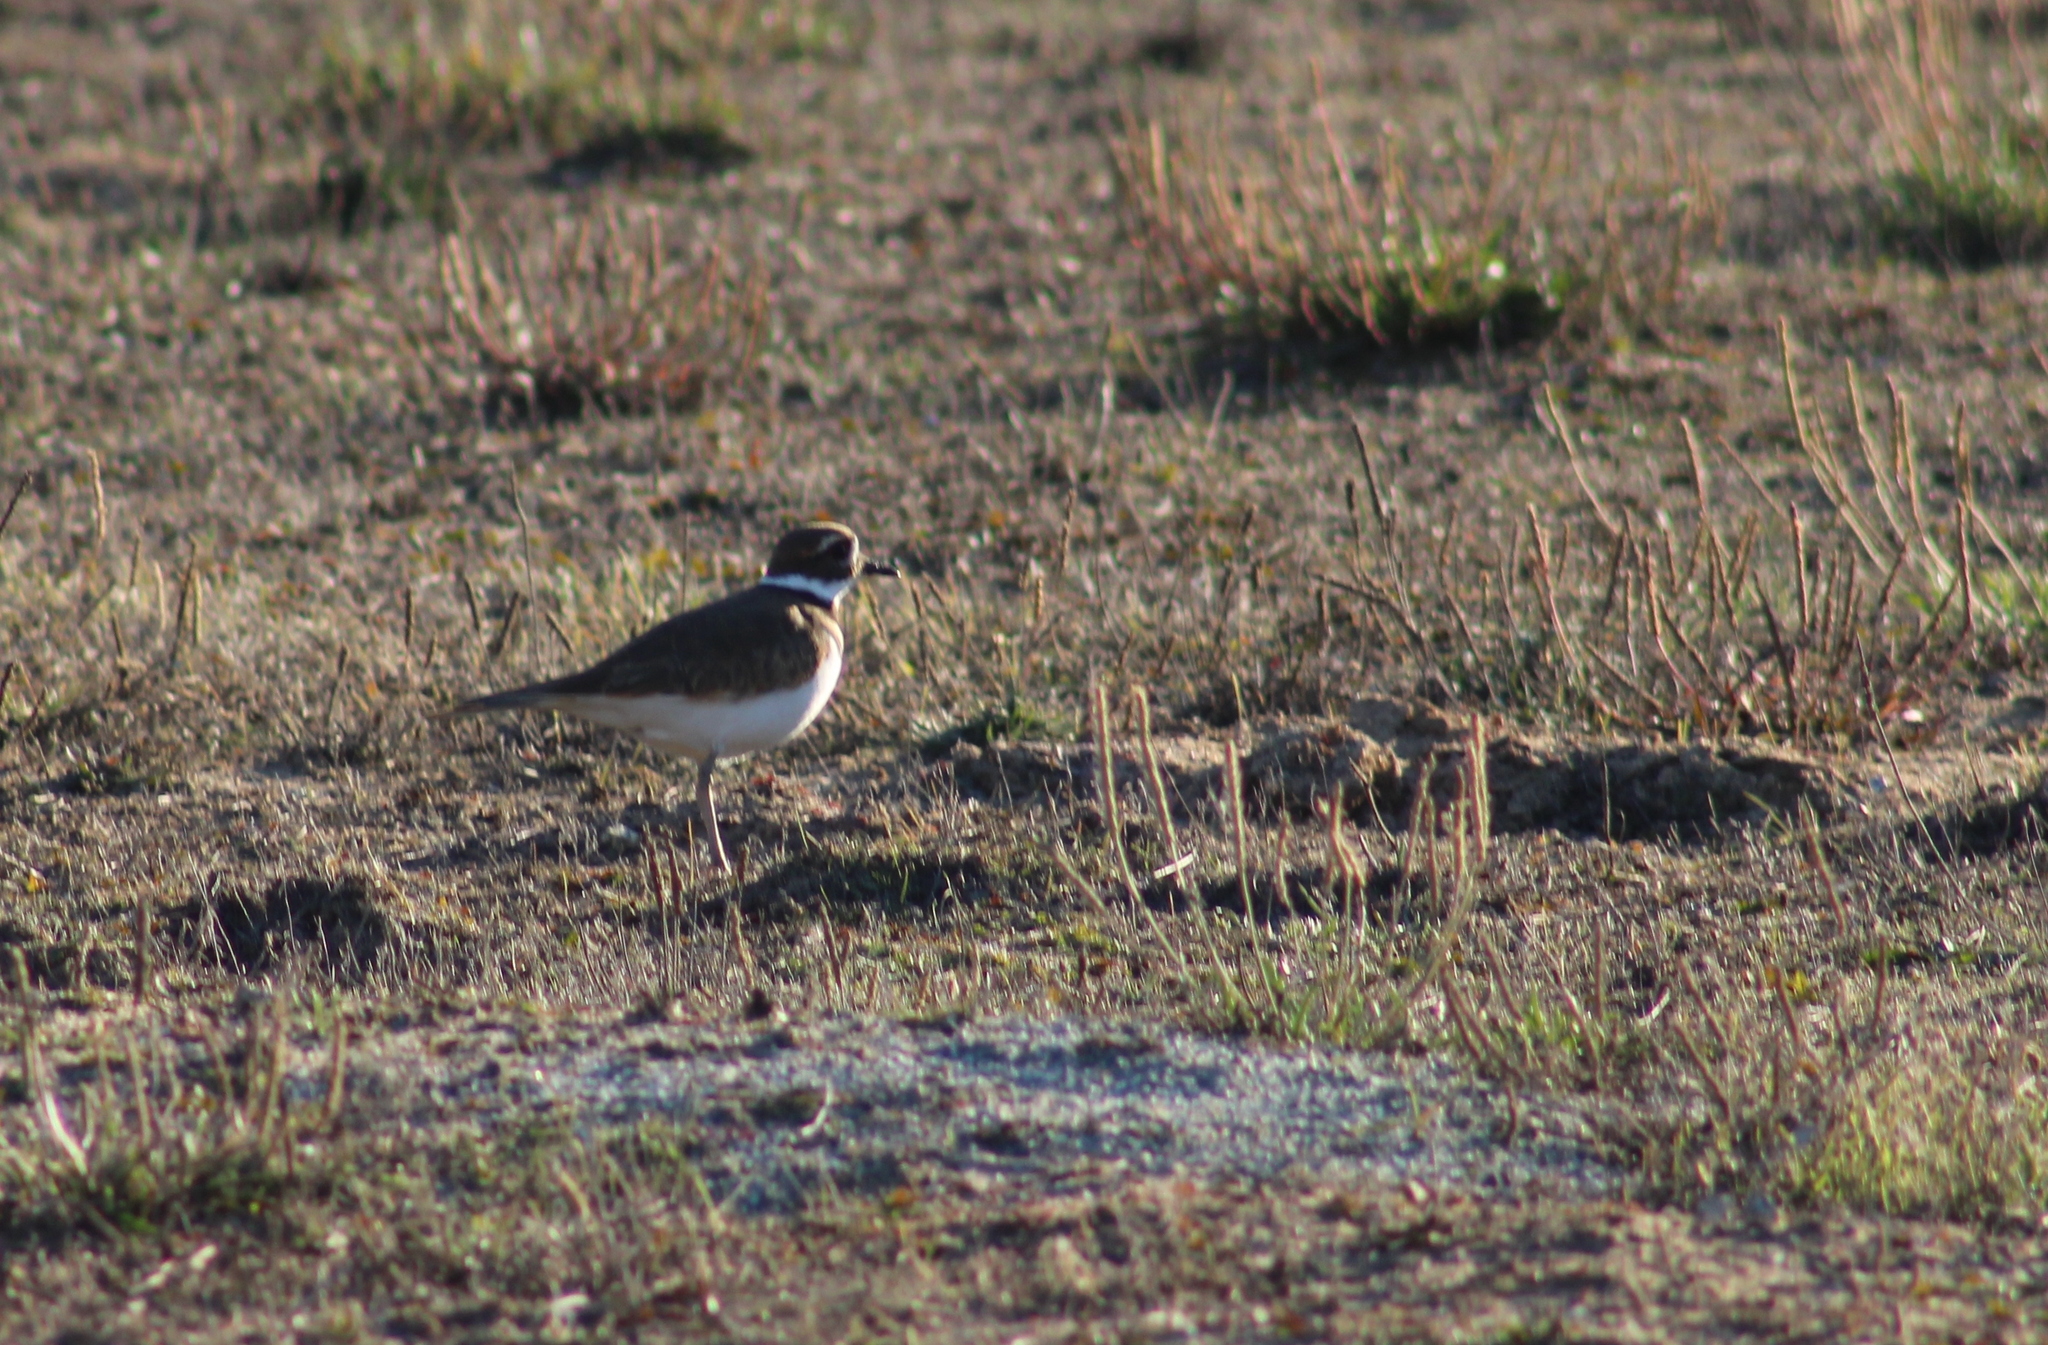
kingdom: Animalia
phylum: Chordata
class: Aves
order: Charadriiformes
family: Charadriidae
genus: Charadrius
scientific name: Charadrius vociferus
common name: Killdeer
